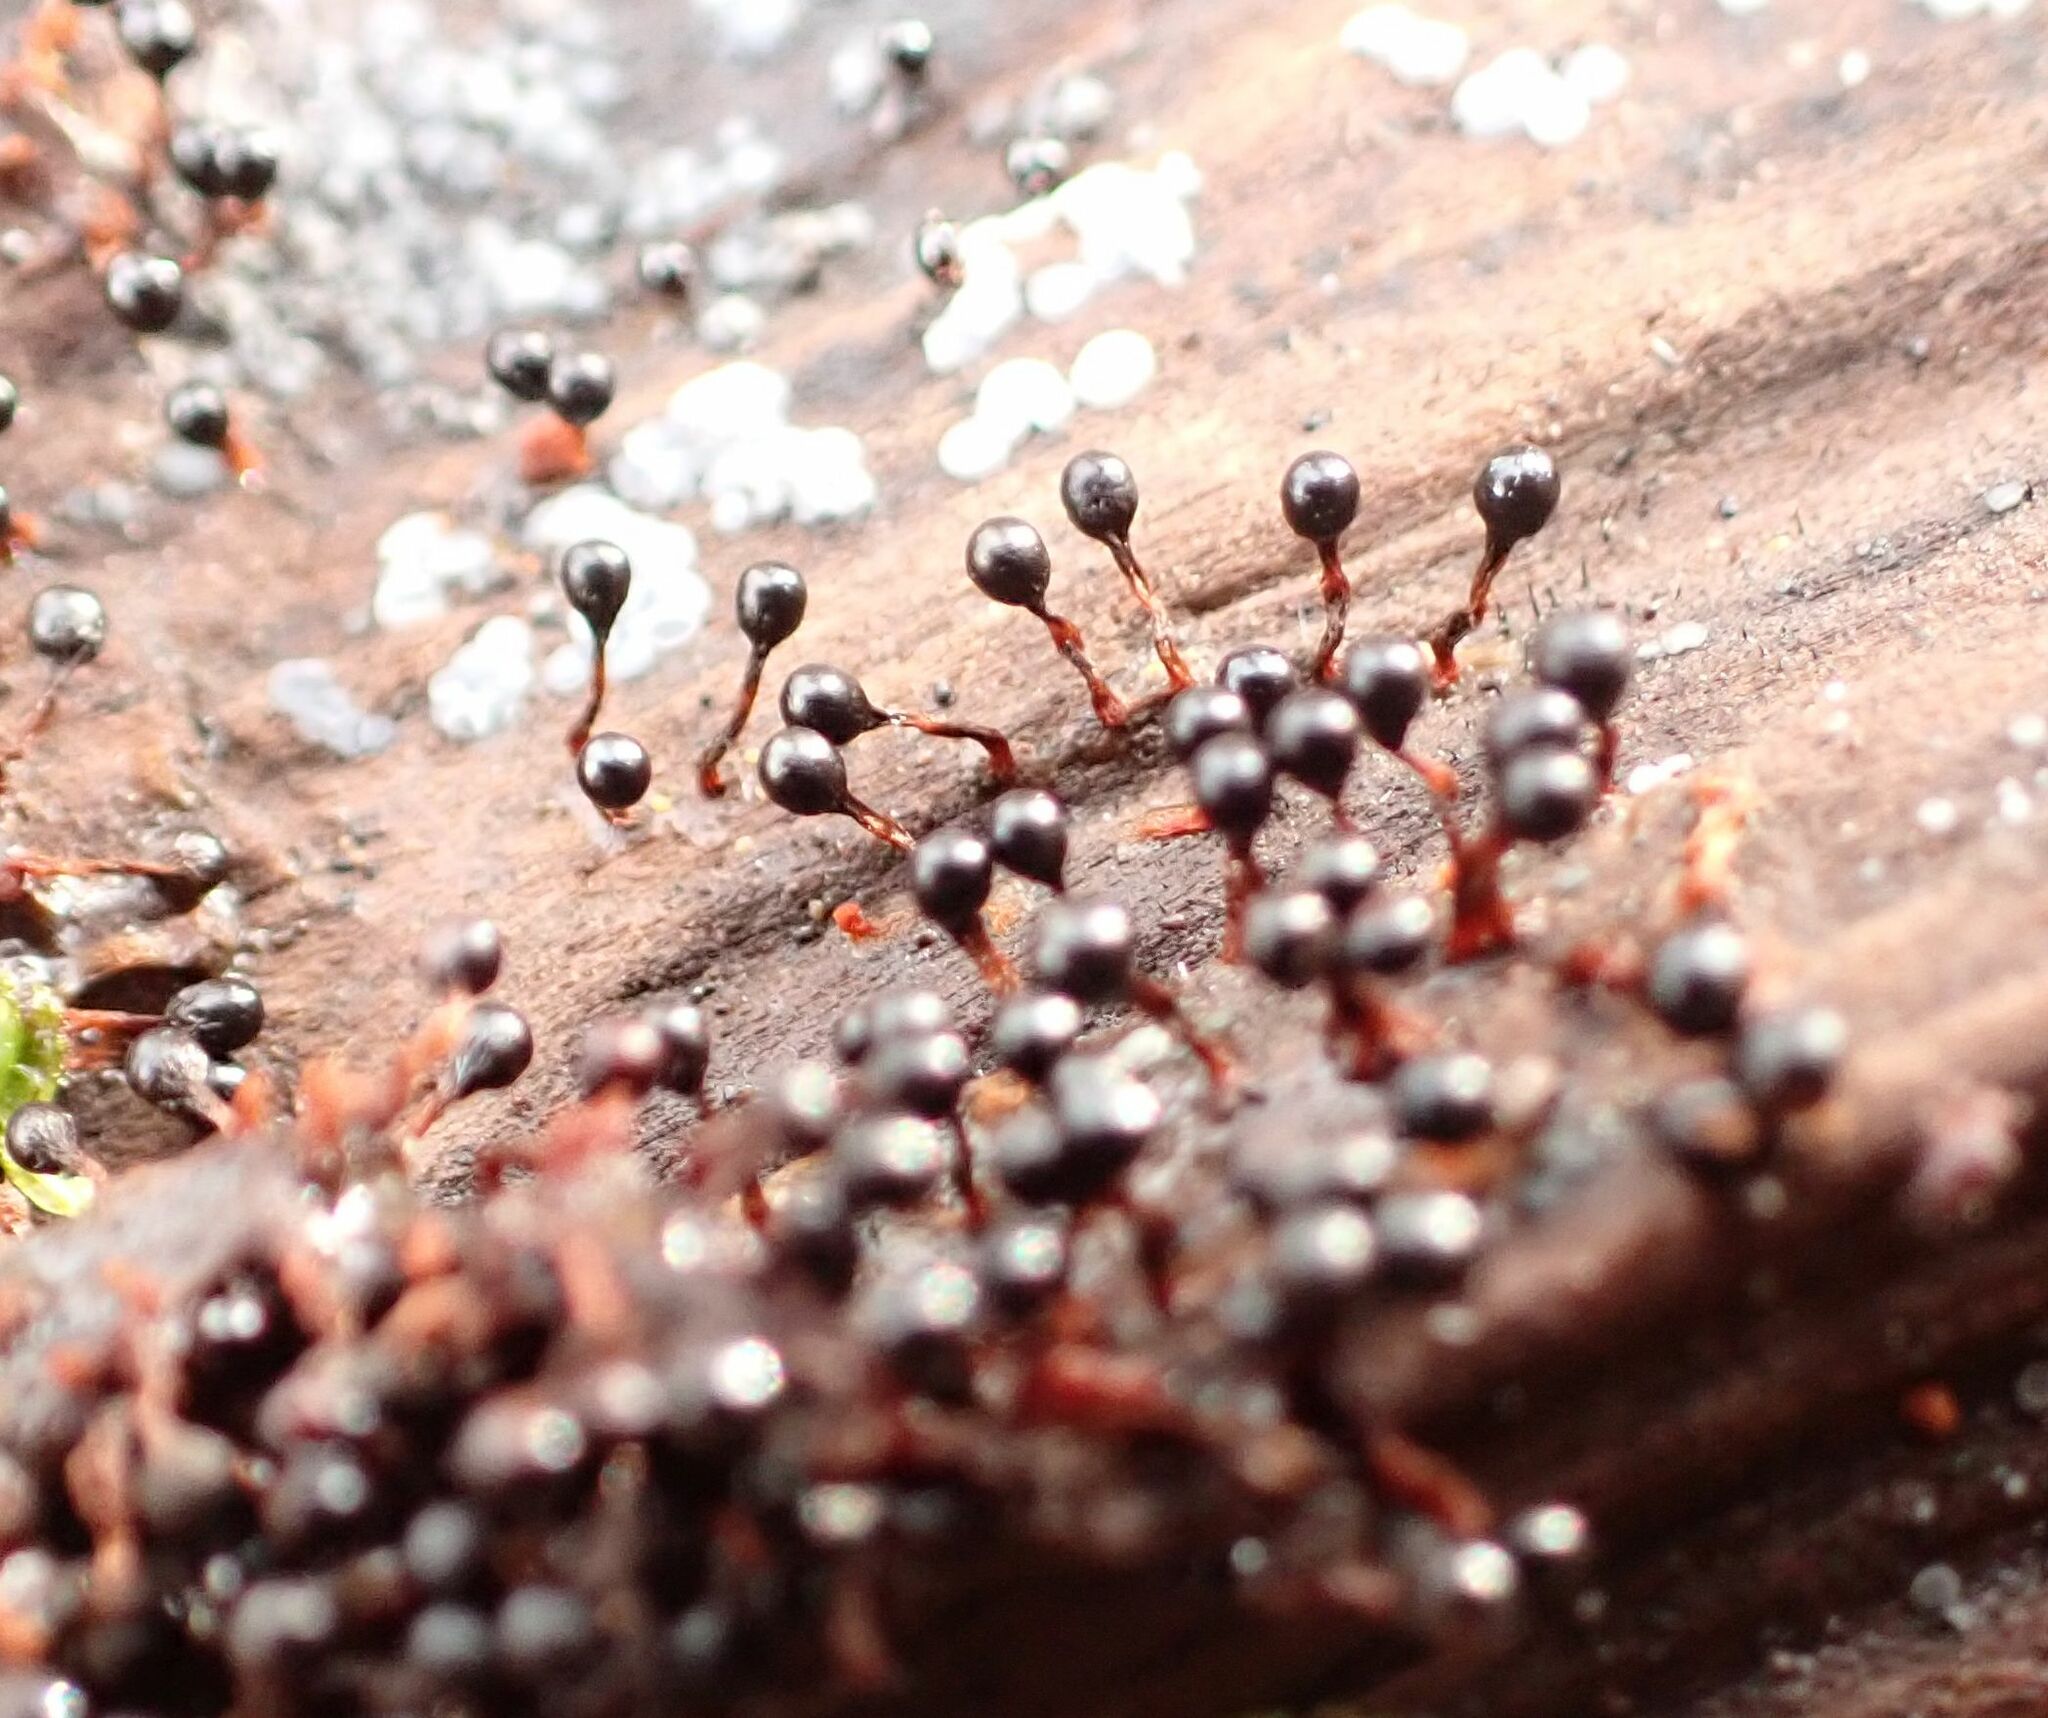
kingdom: Protozoa
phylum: Mycetozoa
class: Myxomycetes
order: Trichiales
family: Trichiaceae
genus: Metatrichia
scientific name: Metatrichia floriformis
